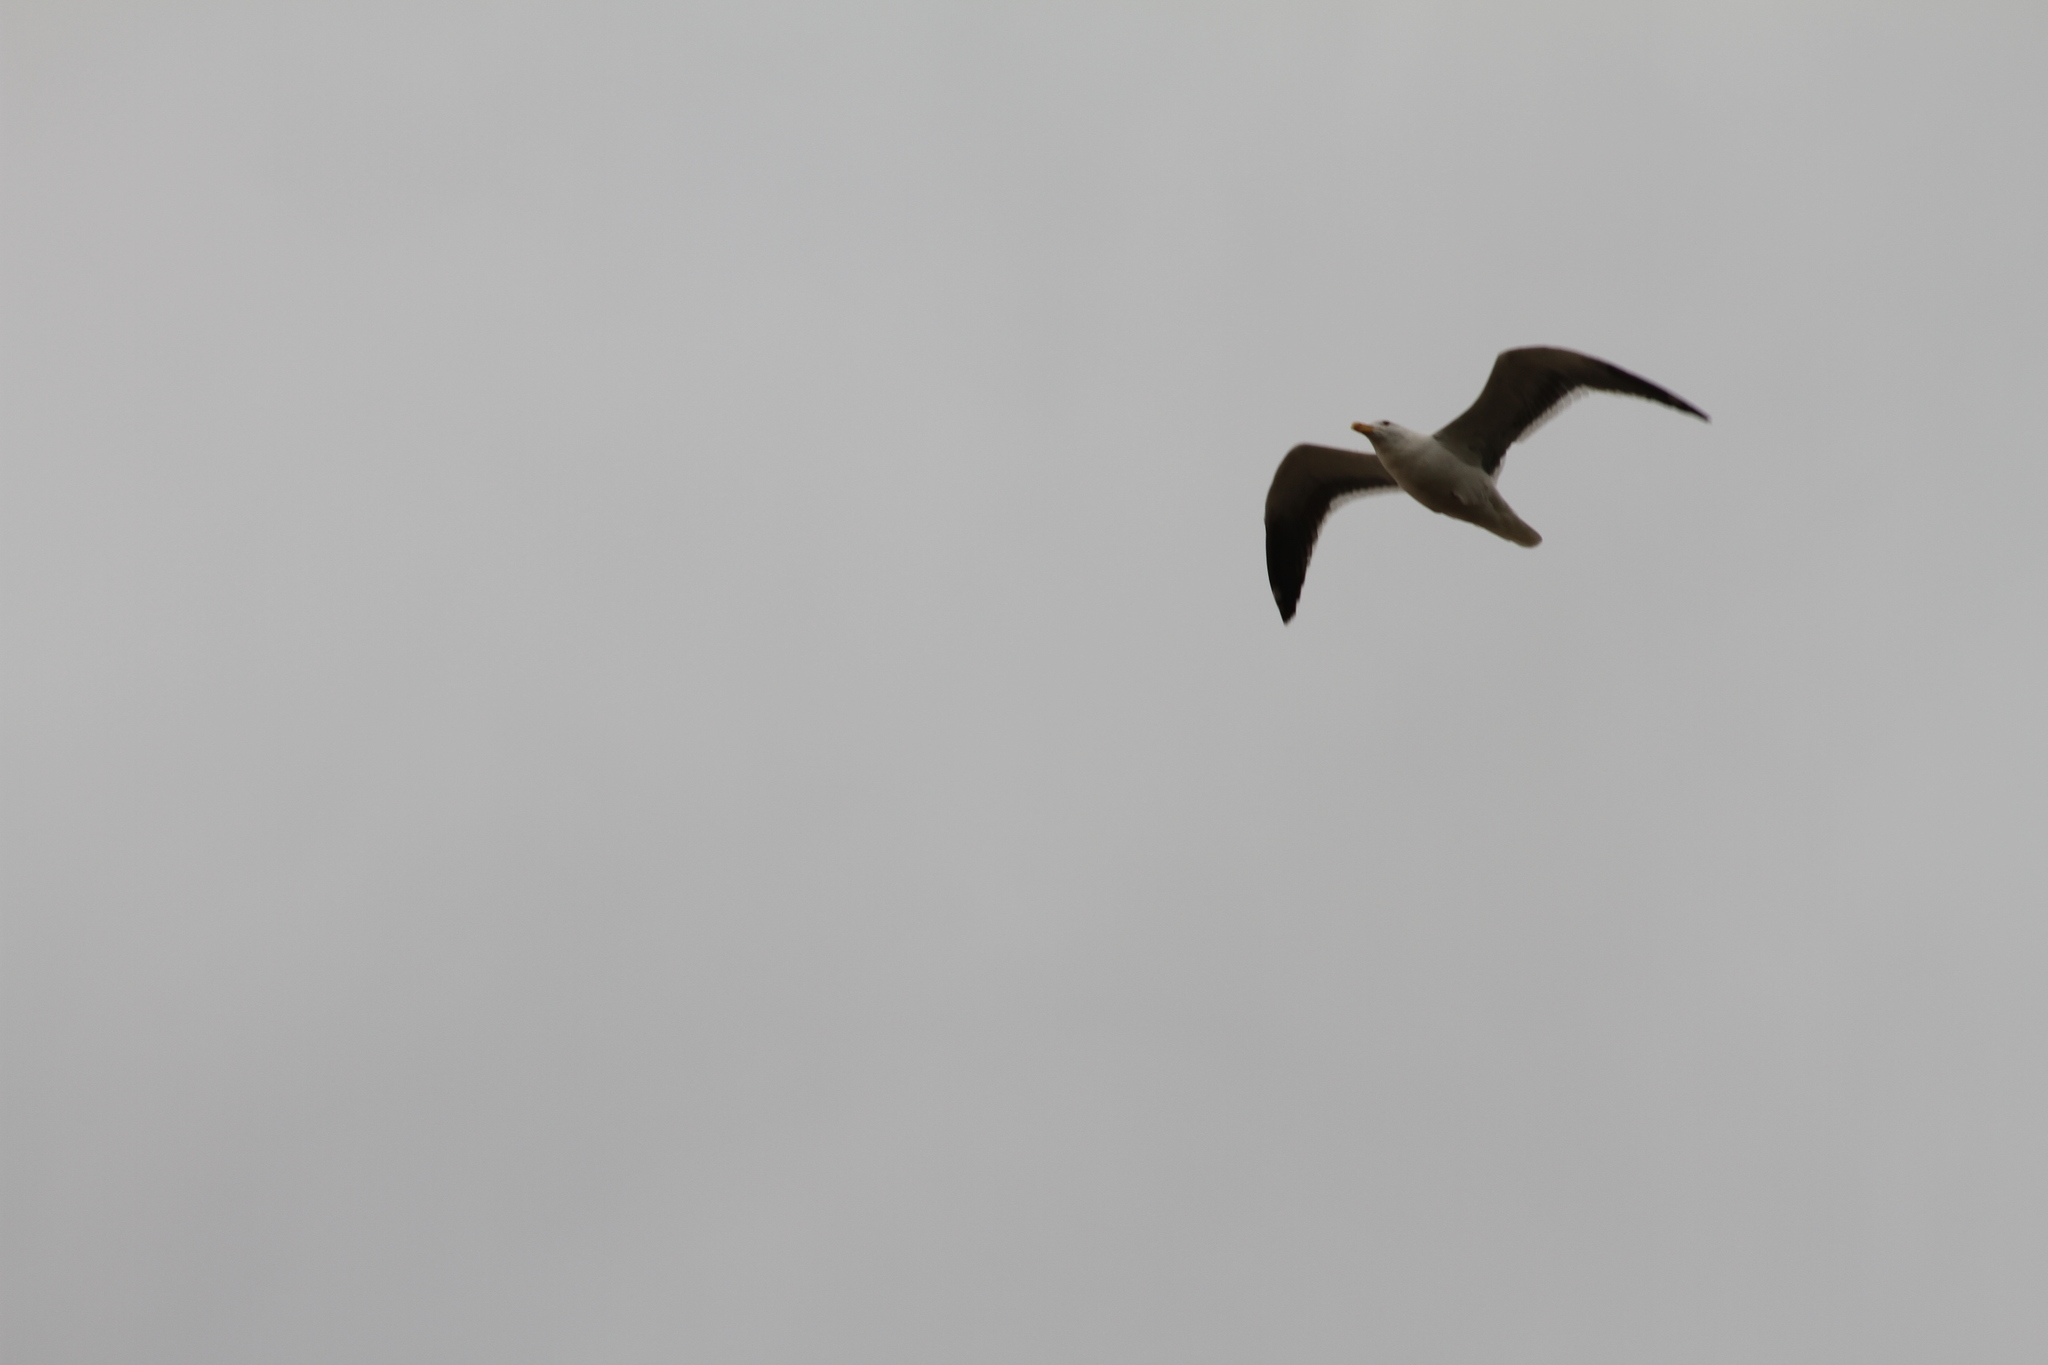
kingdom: Animalia
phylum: Chordata
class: Aves
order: Charadriiformes
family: Laridae
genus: Larus
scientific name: Larus dominicanus
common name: Kelp gull
